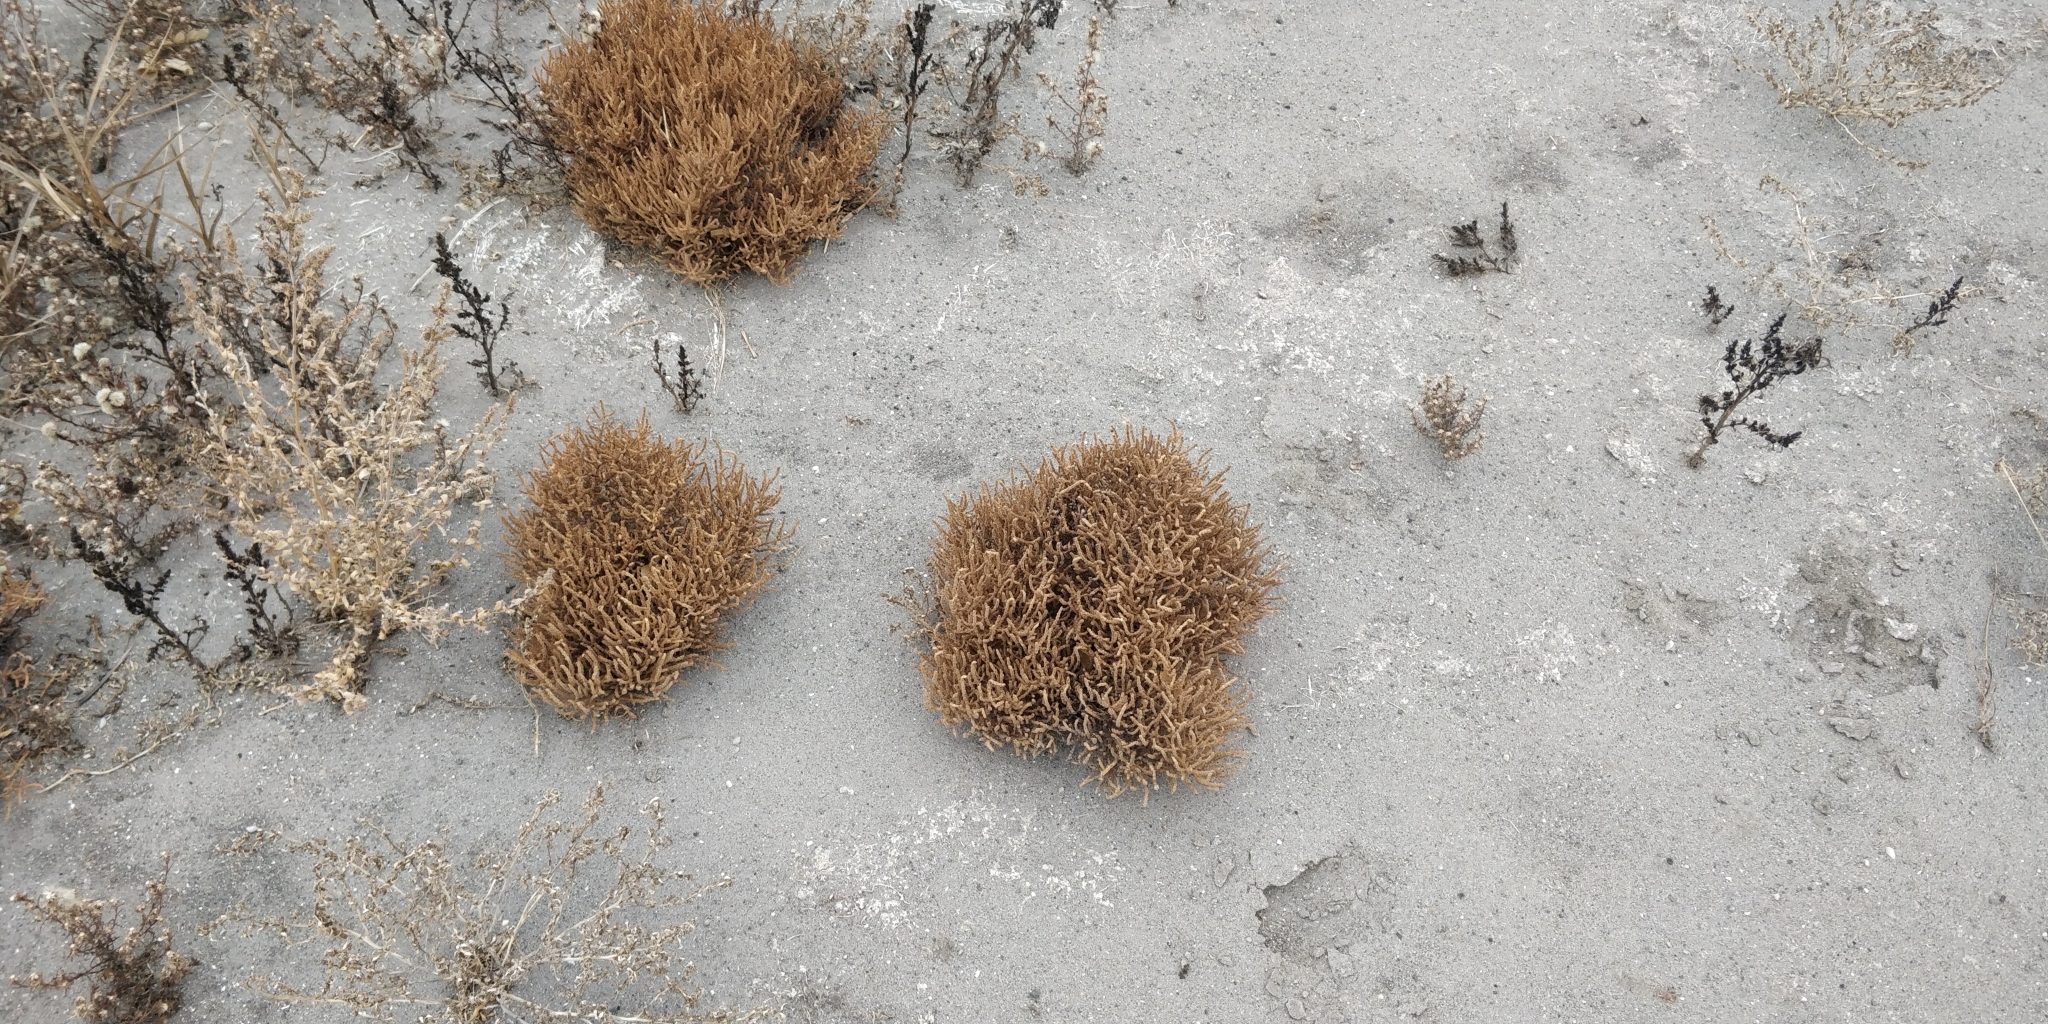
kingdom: Plantae
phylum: Tracheophyta
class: Magnoliopsida
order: Caryophyllales
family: Amaranthaceae
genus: Salicornia
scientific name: Salicornia rubra
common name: Red glasswort
